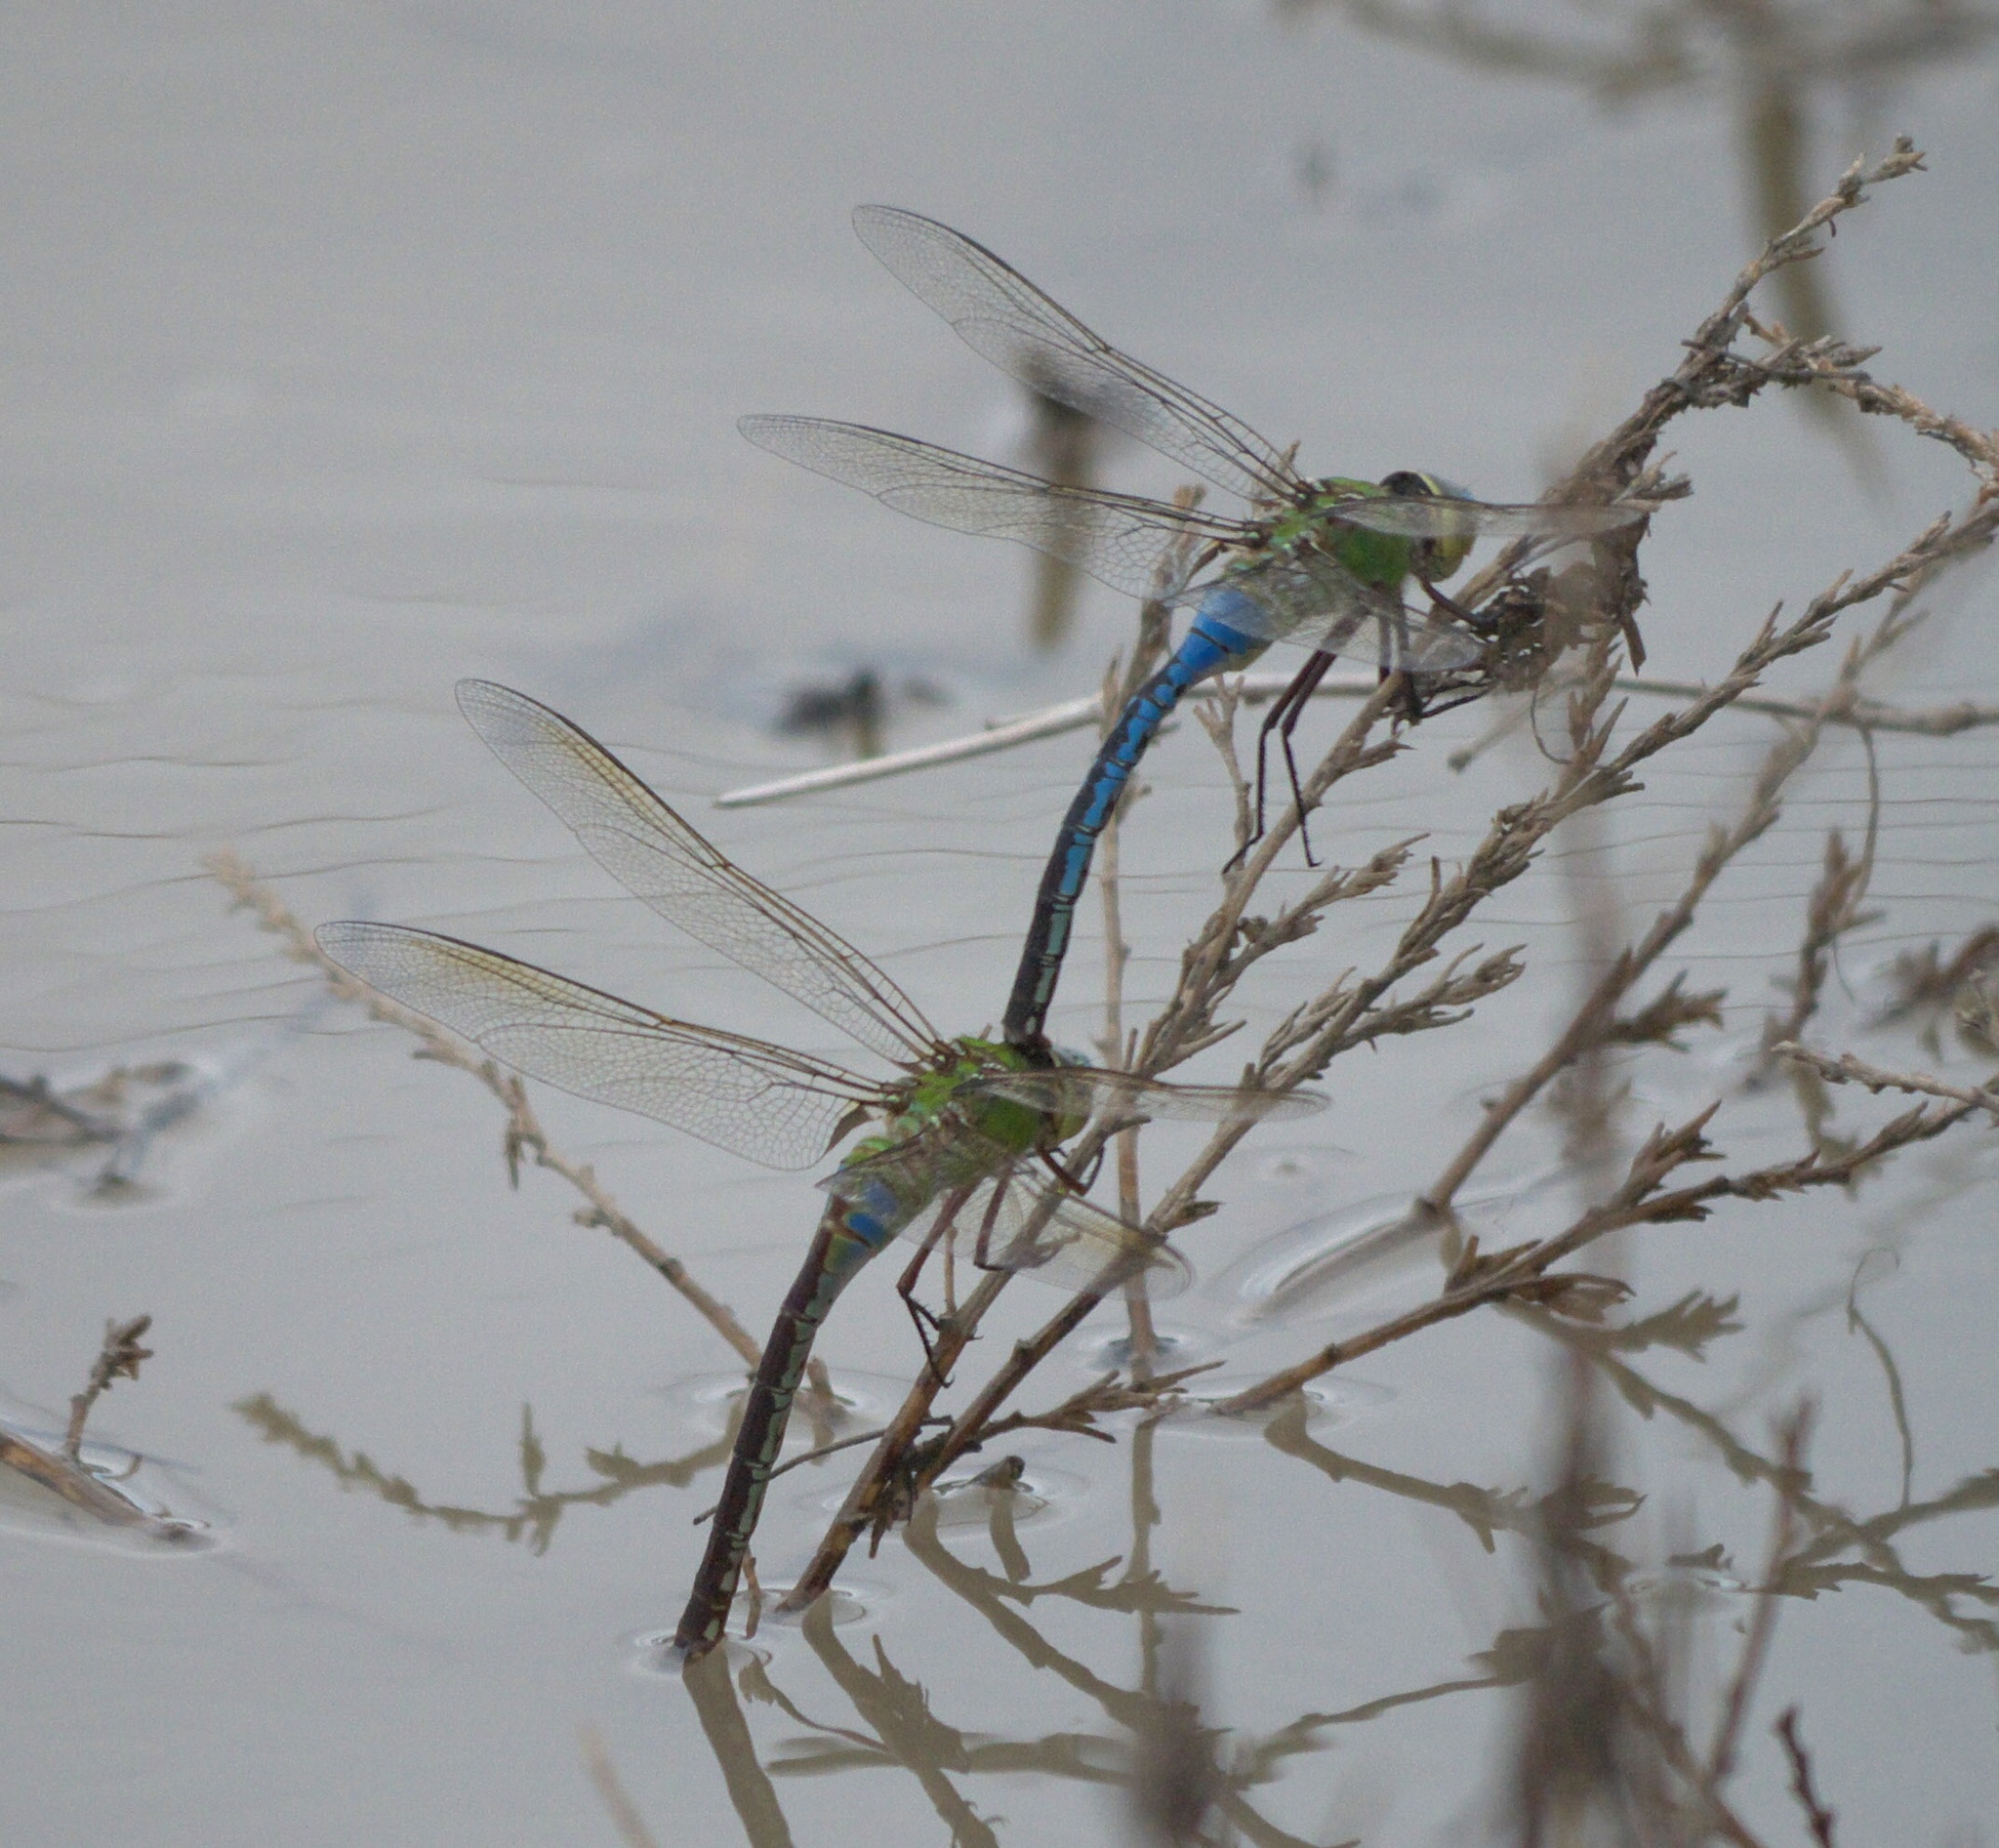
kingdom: Animalia
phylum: Arthropoda
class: Insecta
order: Odonata
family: Aeshnidae
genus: Anax
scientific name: Anax junius
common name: Common green darner
